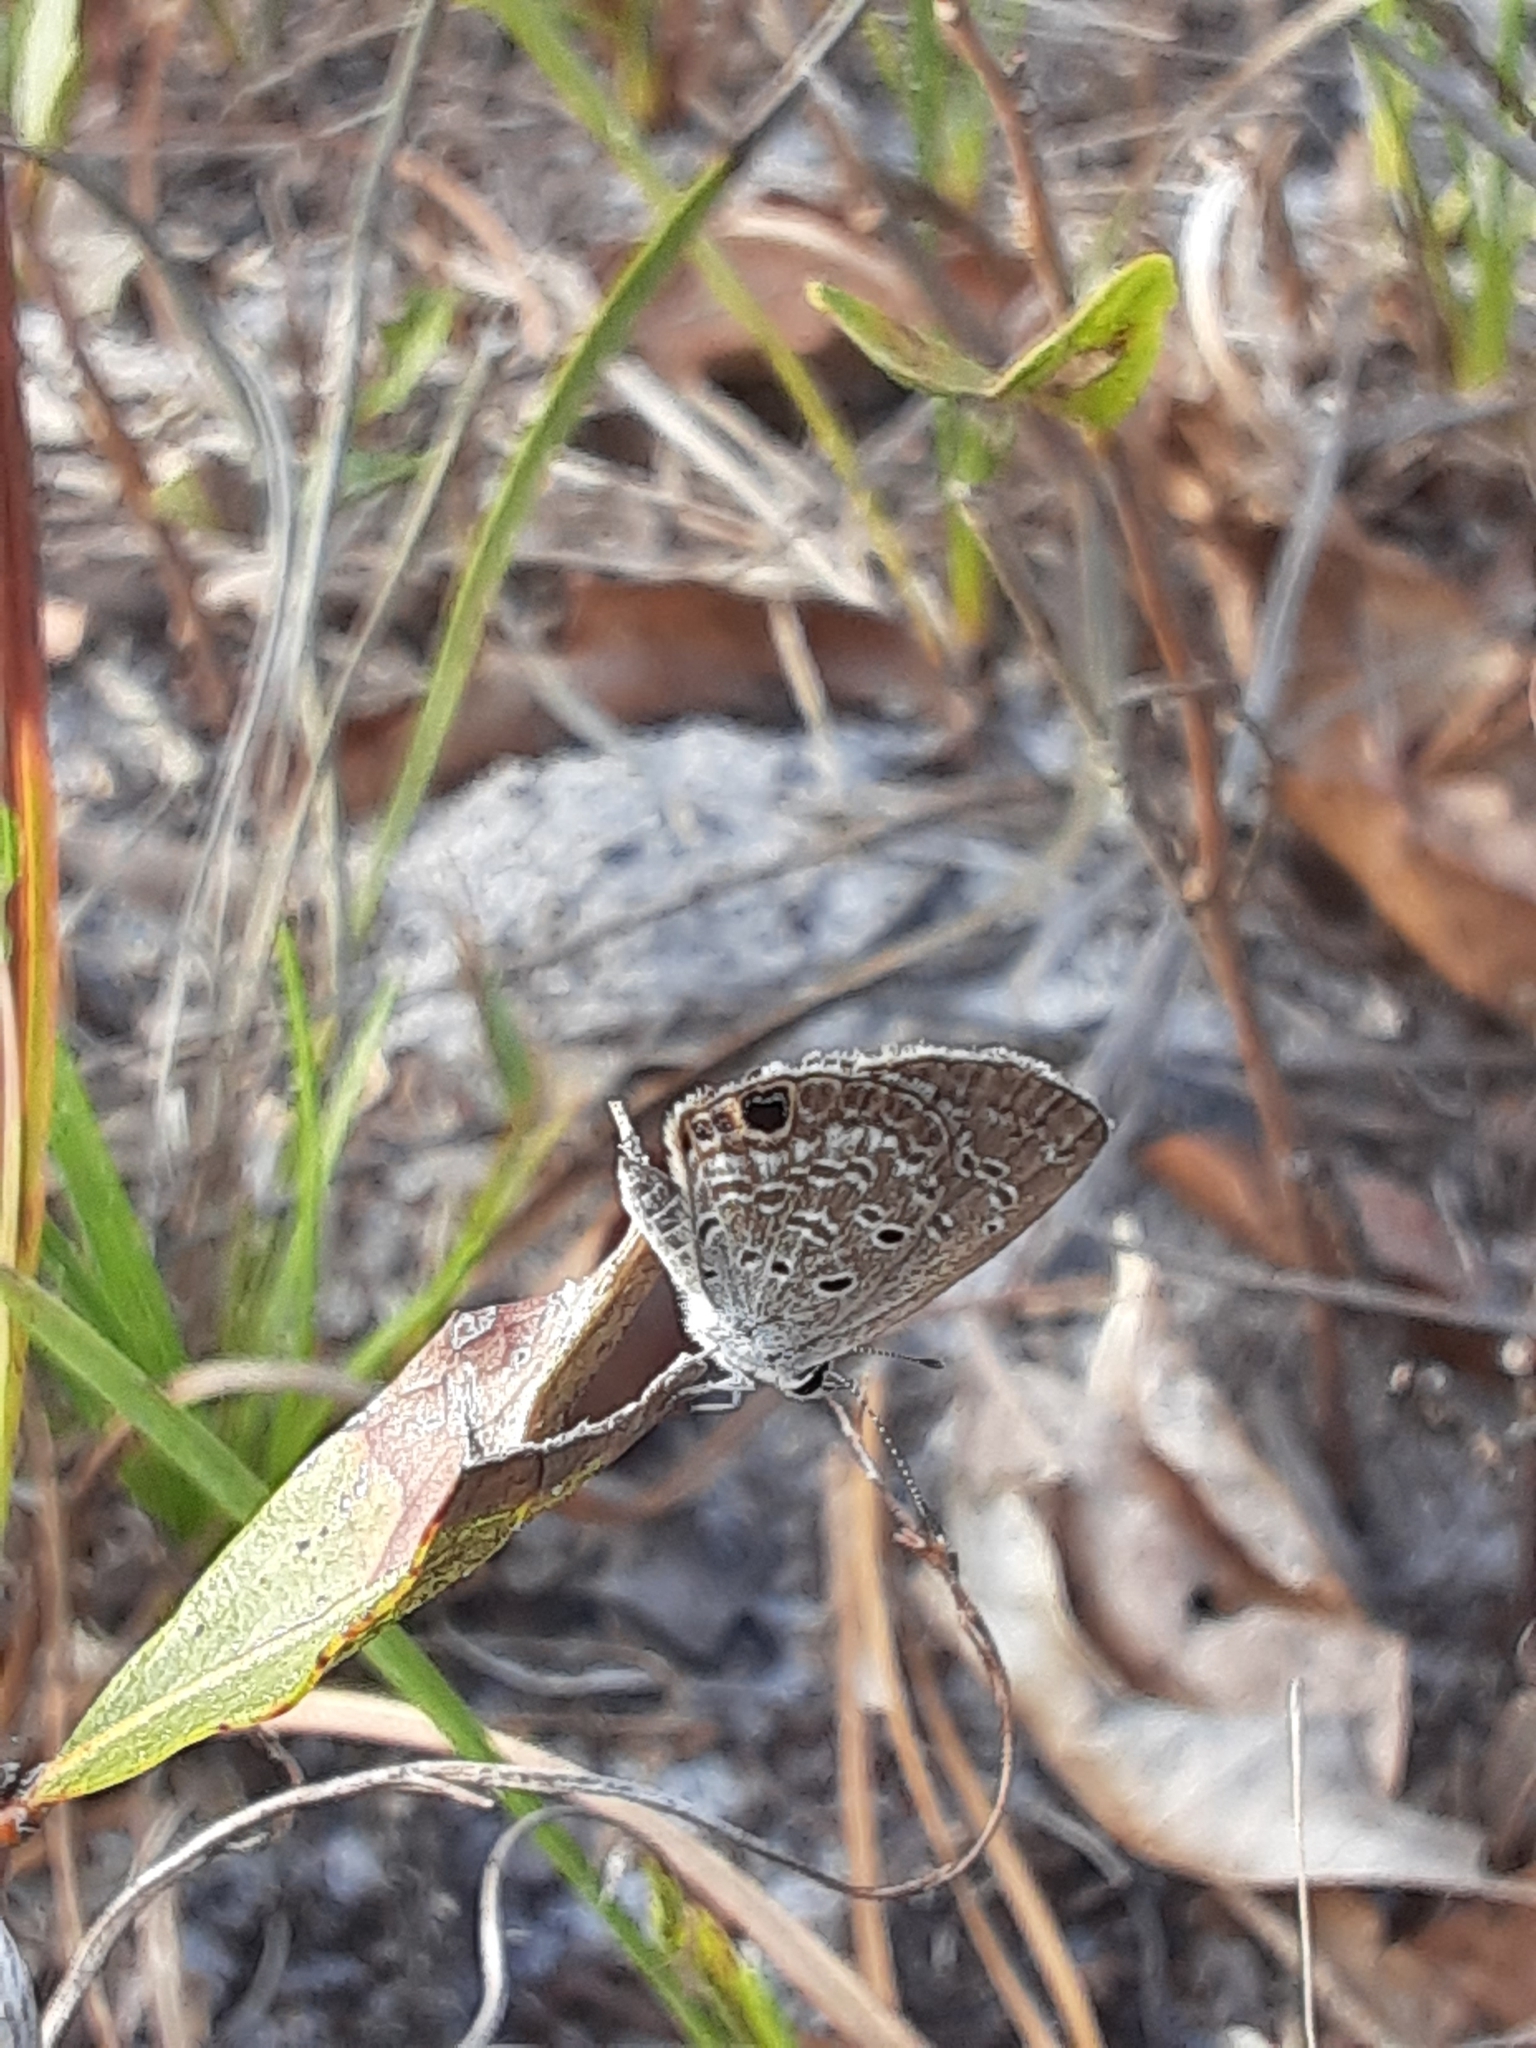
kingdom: Animalia
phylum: Arthropoda
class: Insecta
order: Lepidoptera
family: Lycaenidae
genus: Hemiargus
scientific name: Hemiargus ceraunus
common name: Ceraunus blue
